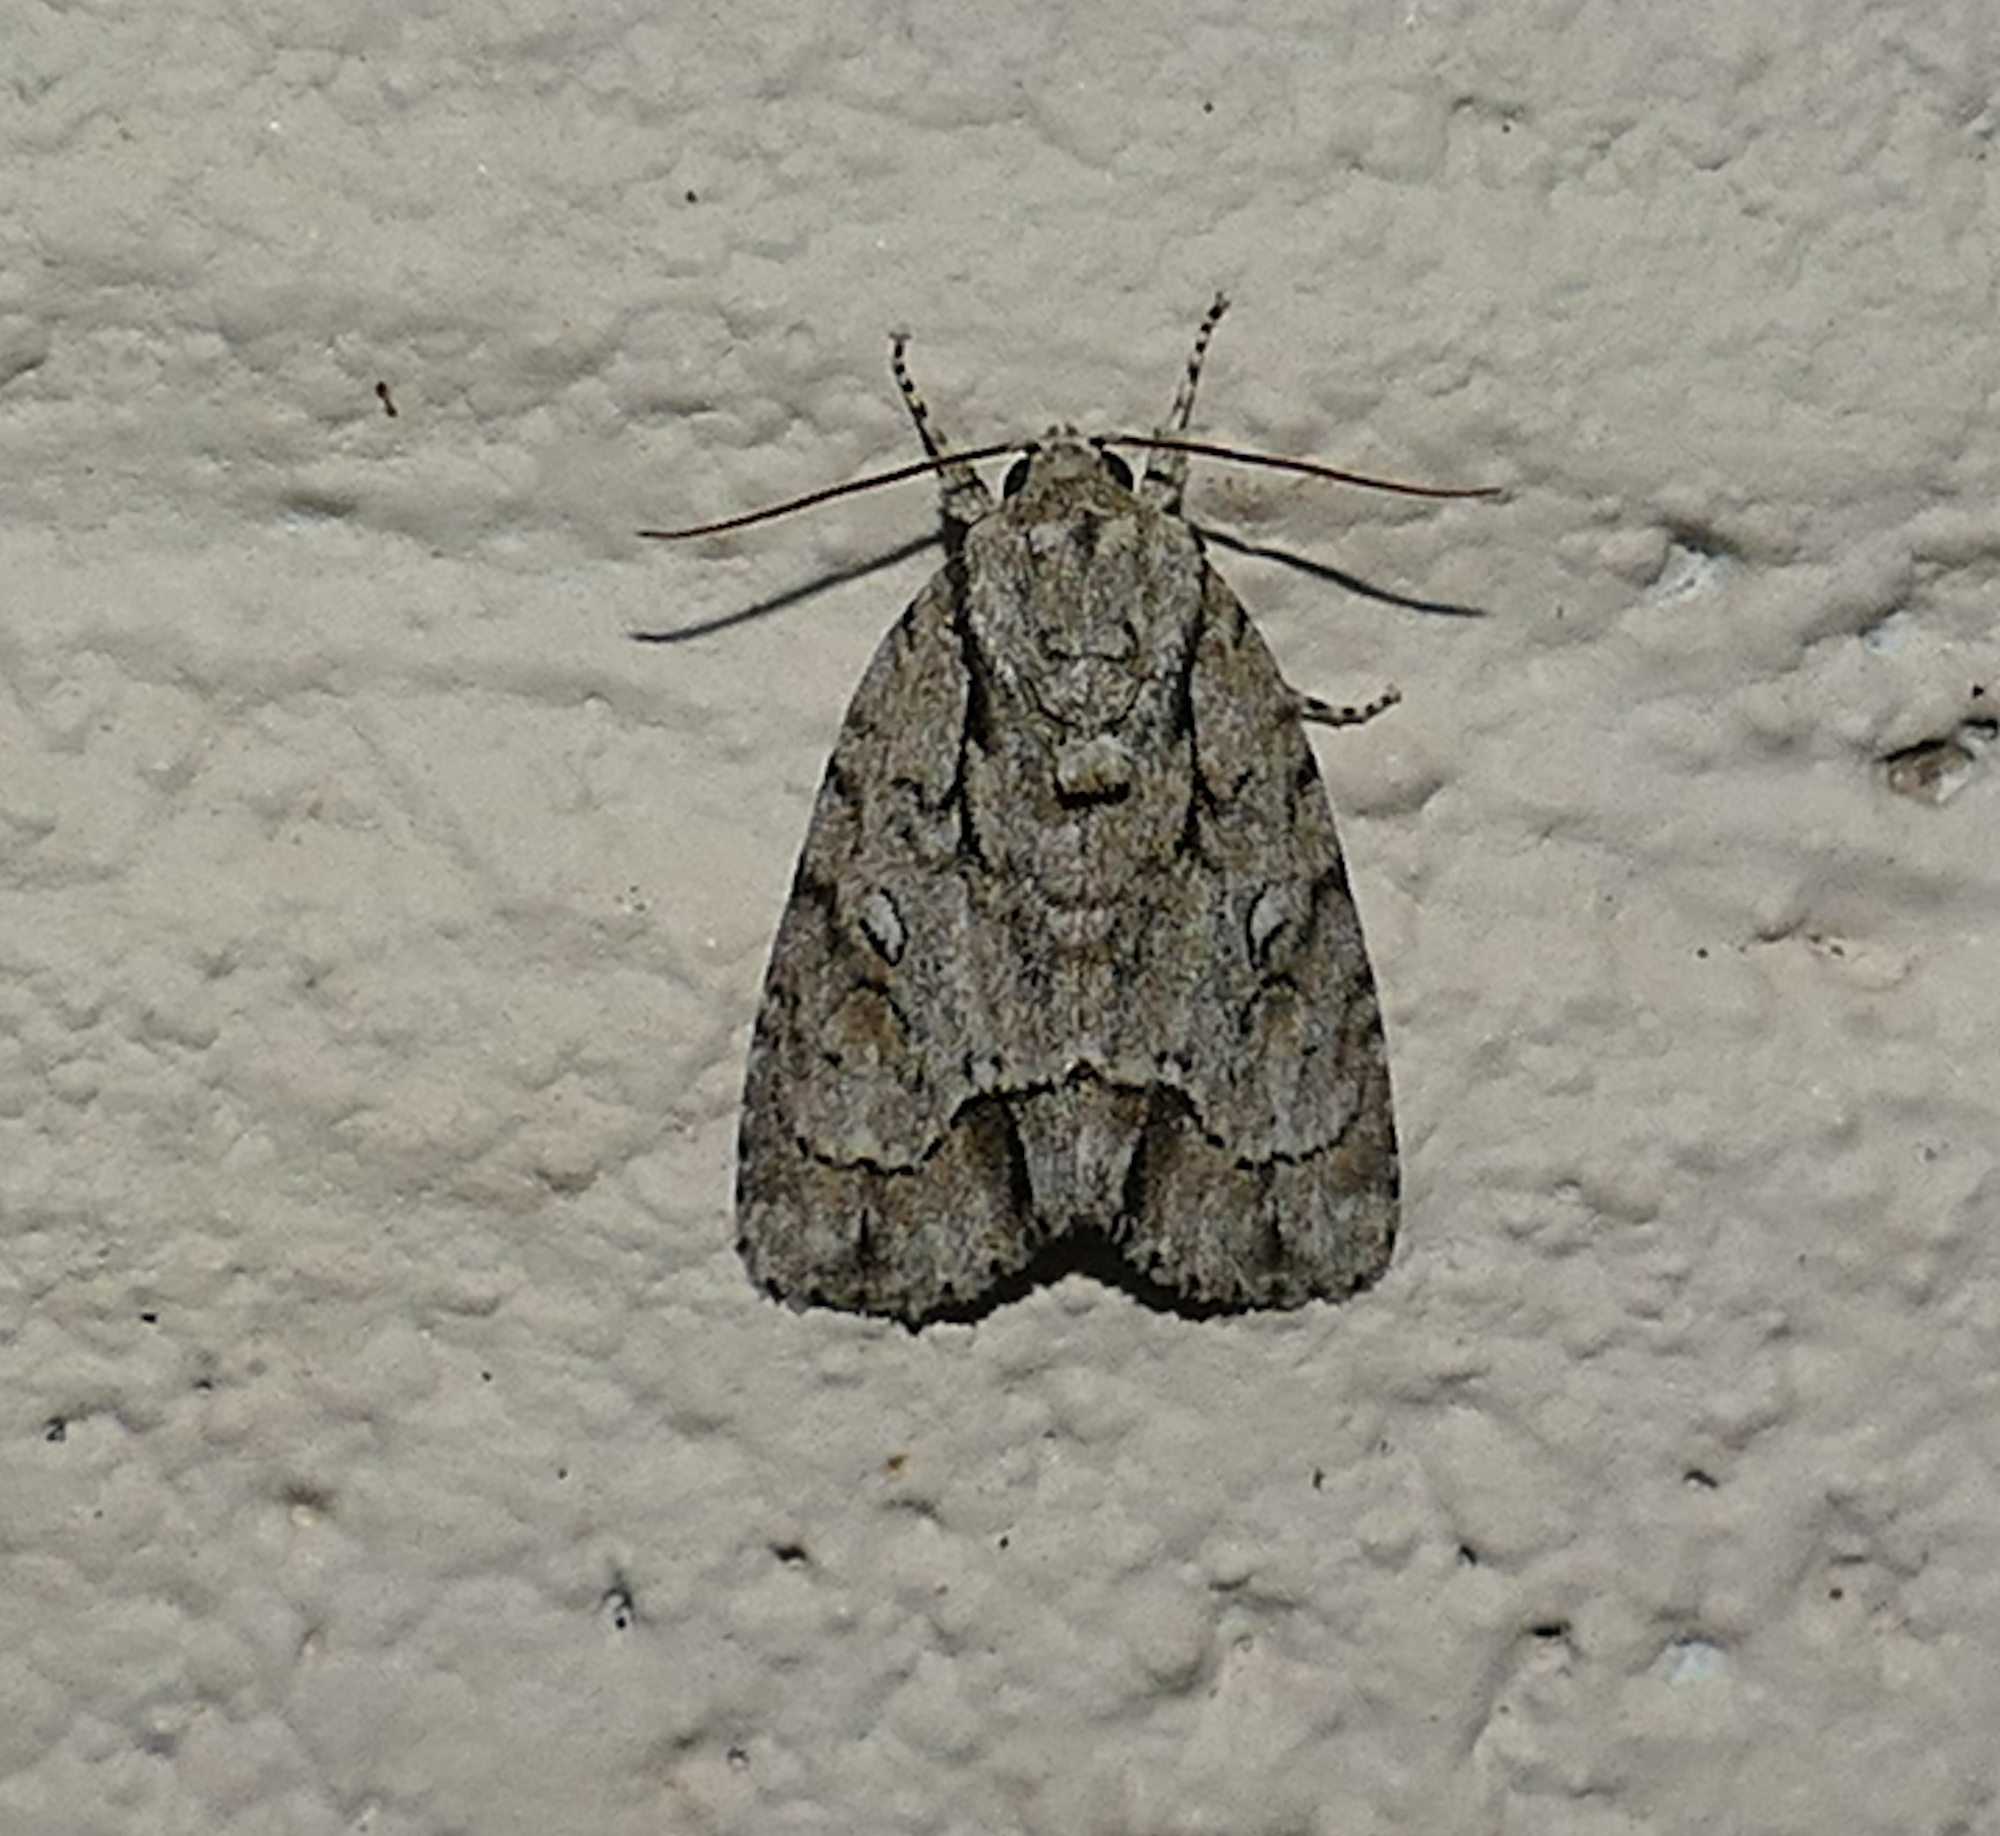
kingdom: Animalia
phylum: Arthropoda
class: Insecta
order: Lepidoptera
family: Noctuidae
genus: Acronicta
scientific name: Acronicta vinnula
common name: Delightful dagger
